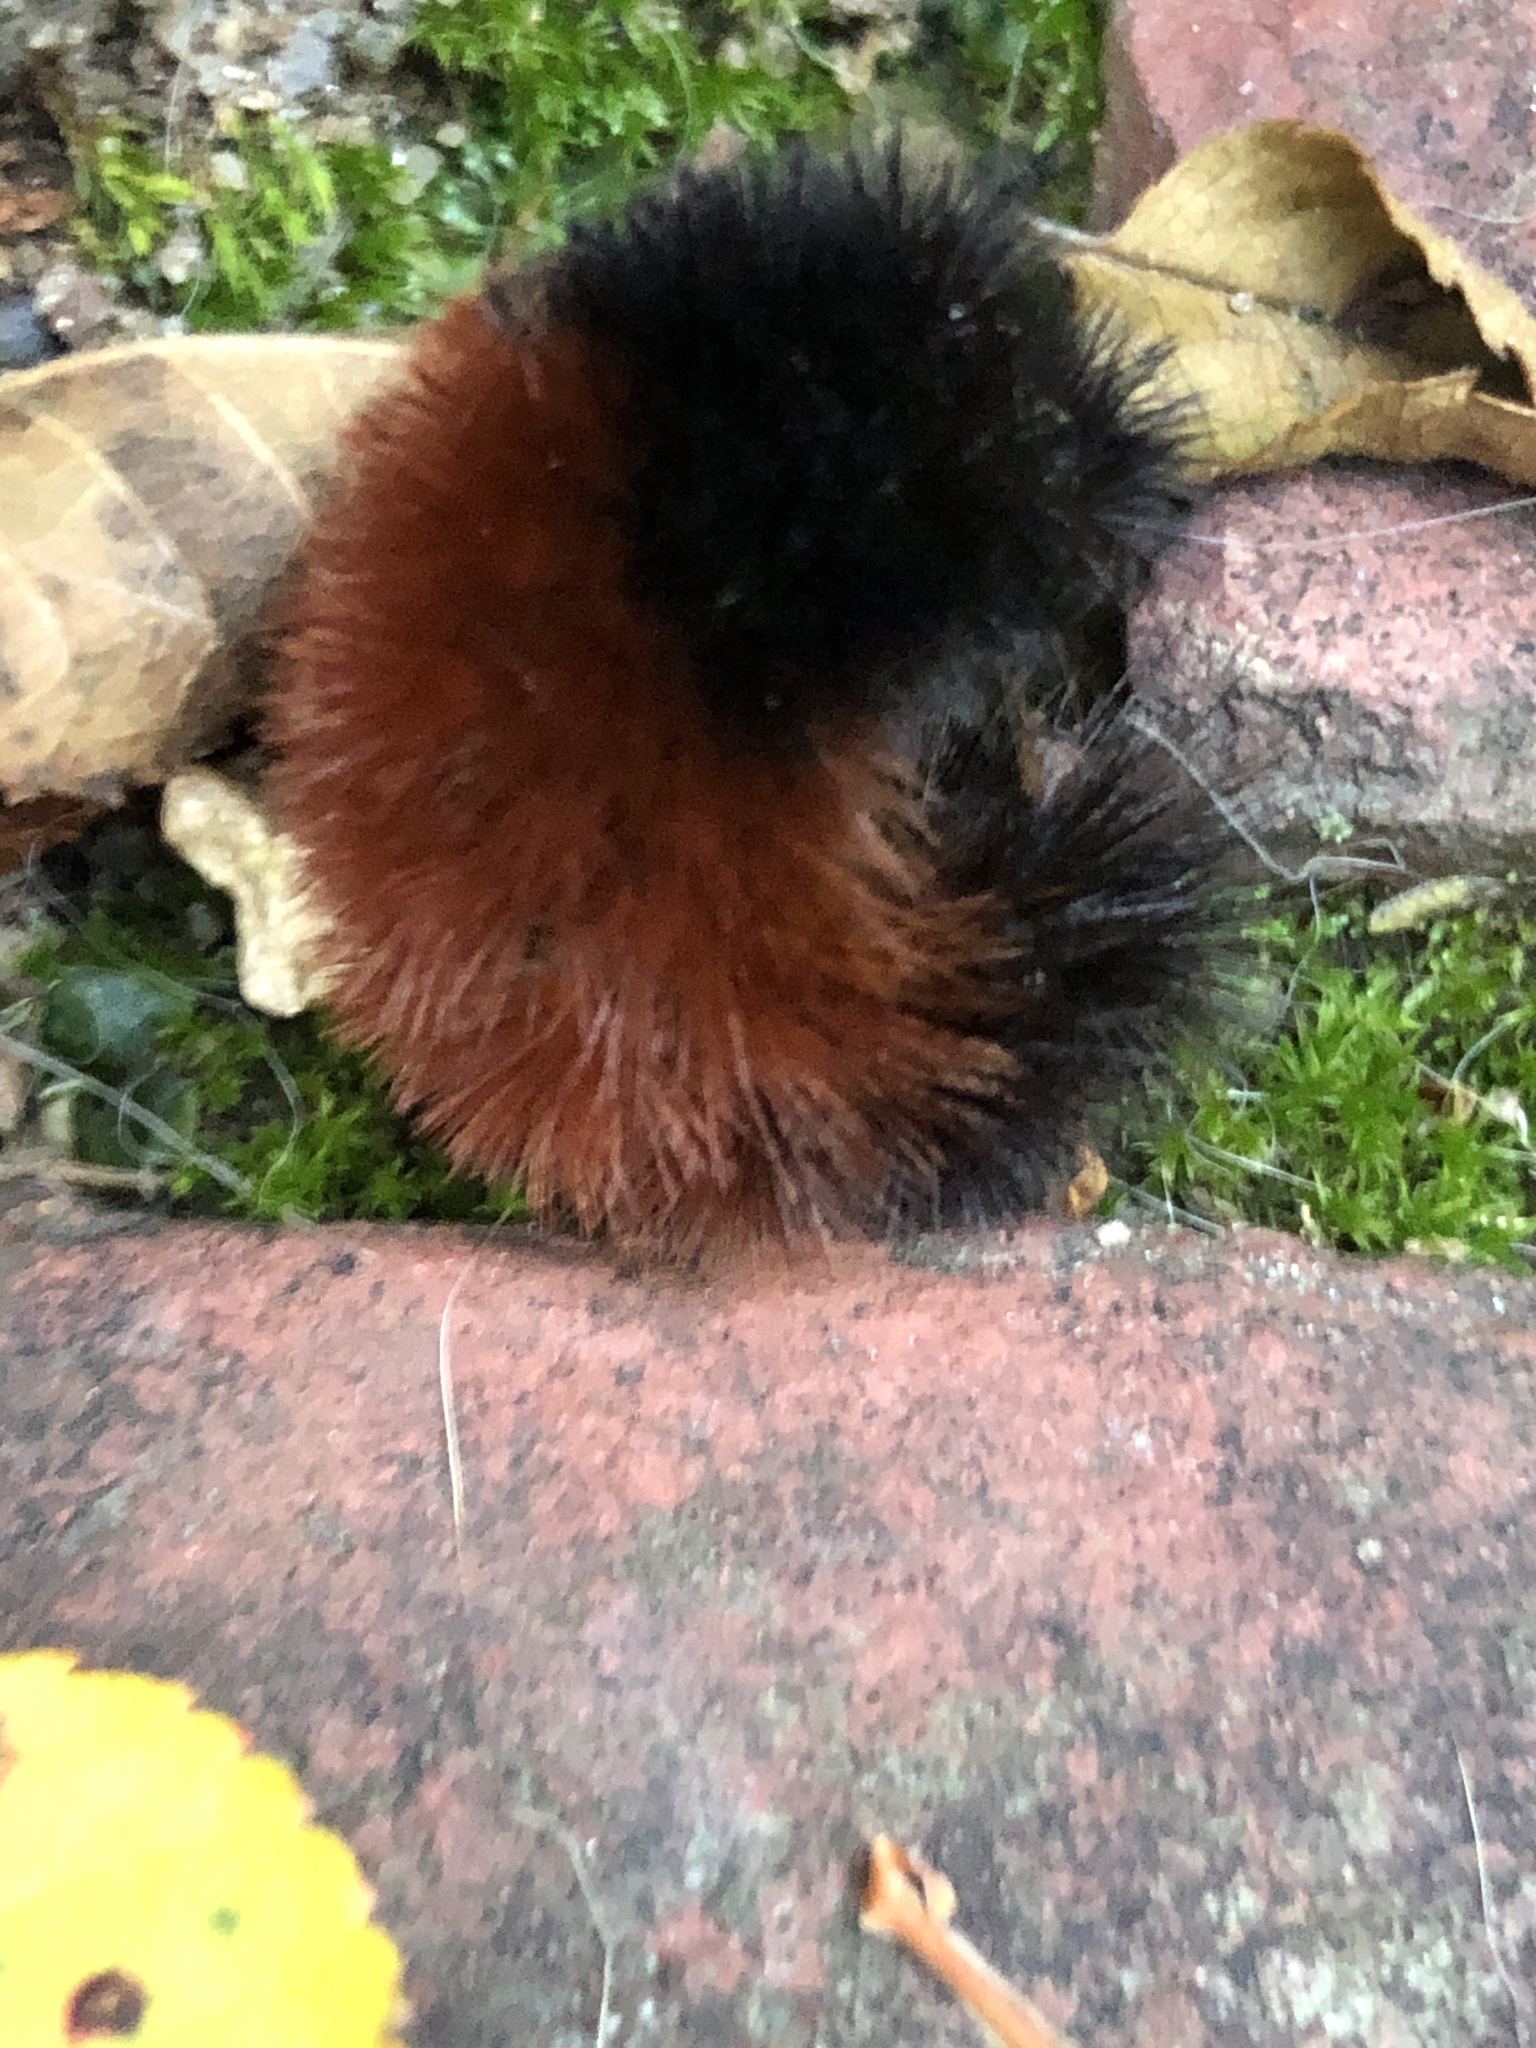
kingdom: Animalia
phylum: Arthropoda
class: Insecta
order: Lepidoptera
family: Erebidae
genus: Pyrrharctia
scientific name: Pyrrharctia isabella
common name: Isabella tiger moth
